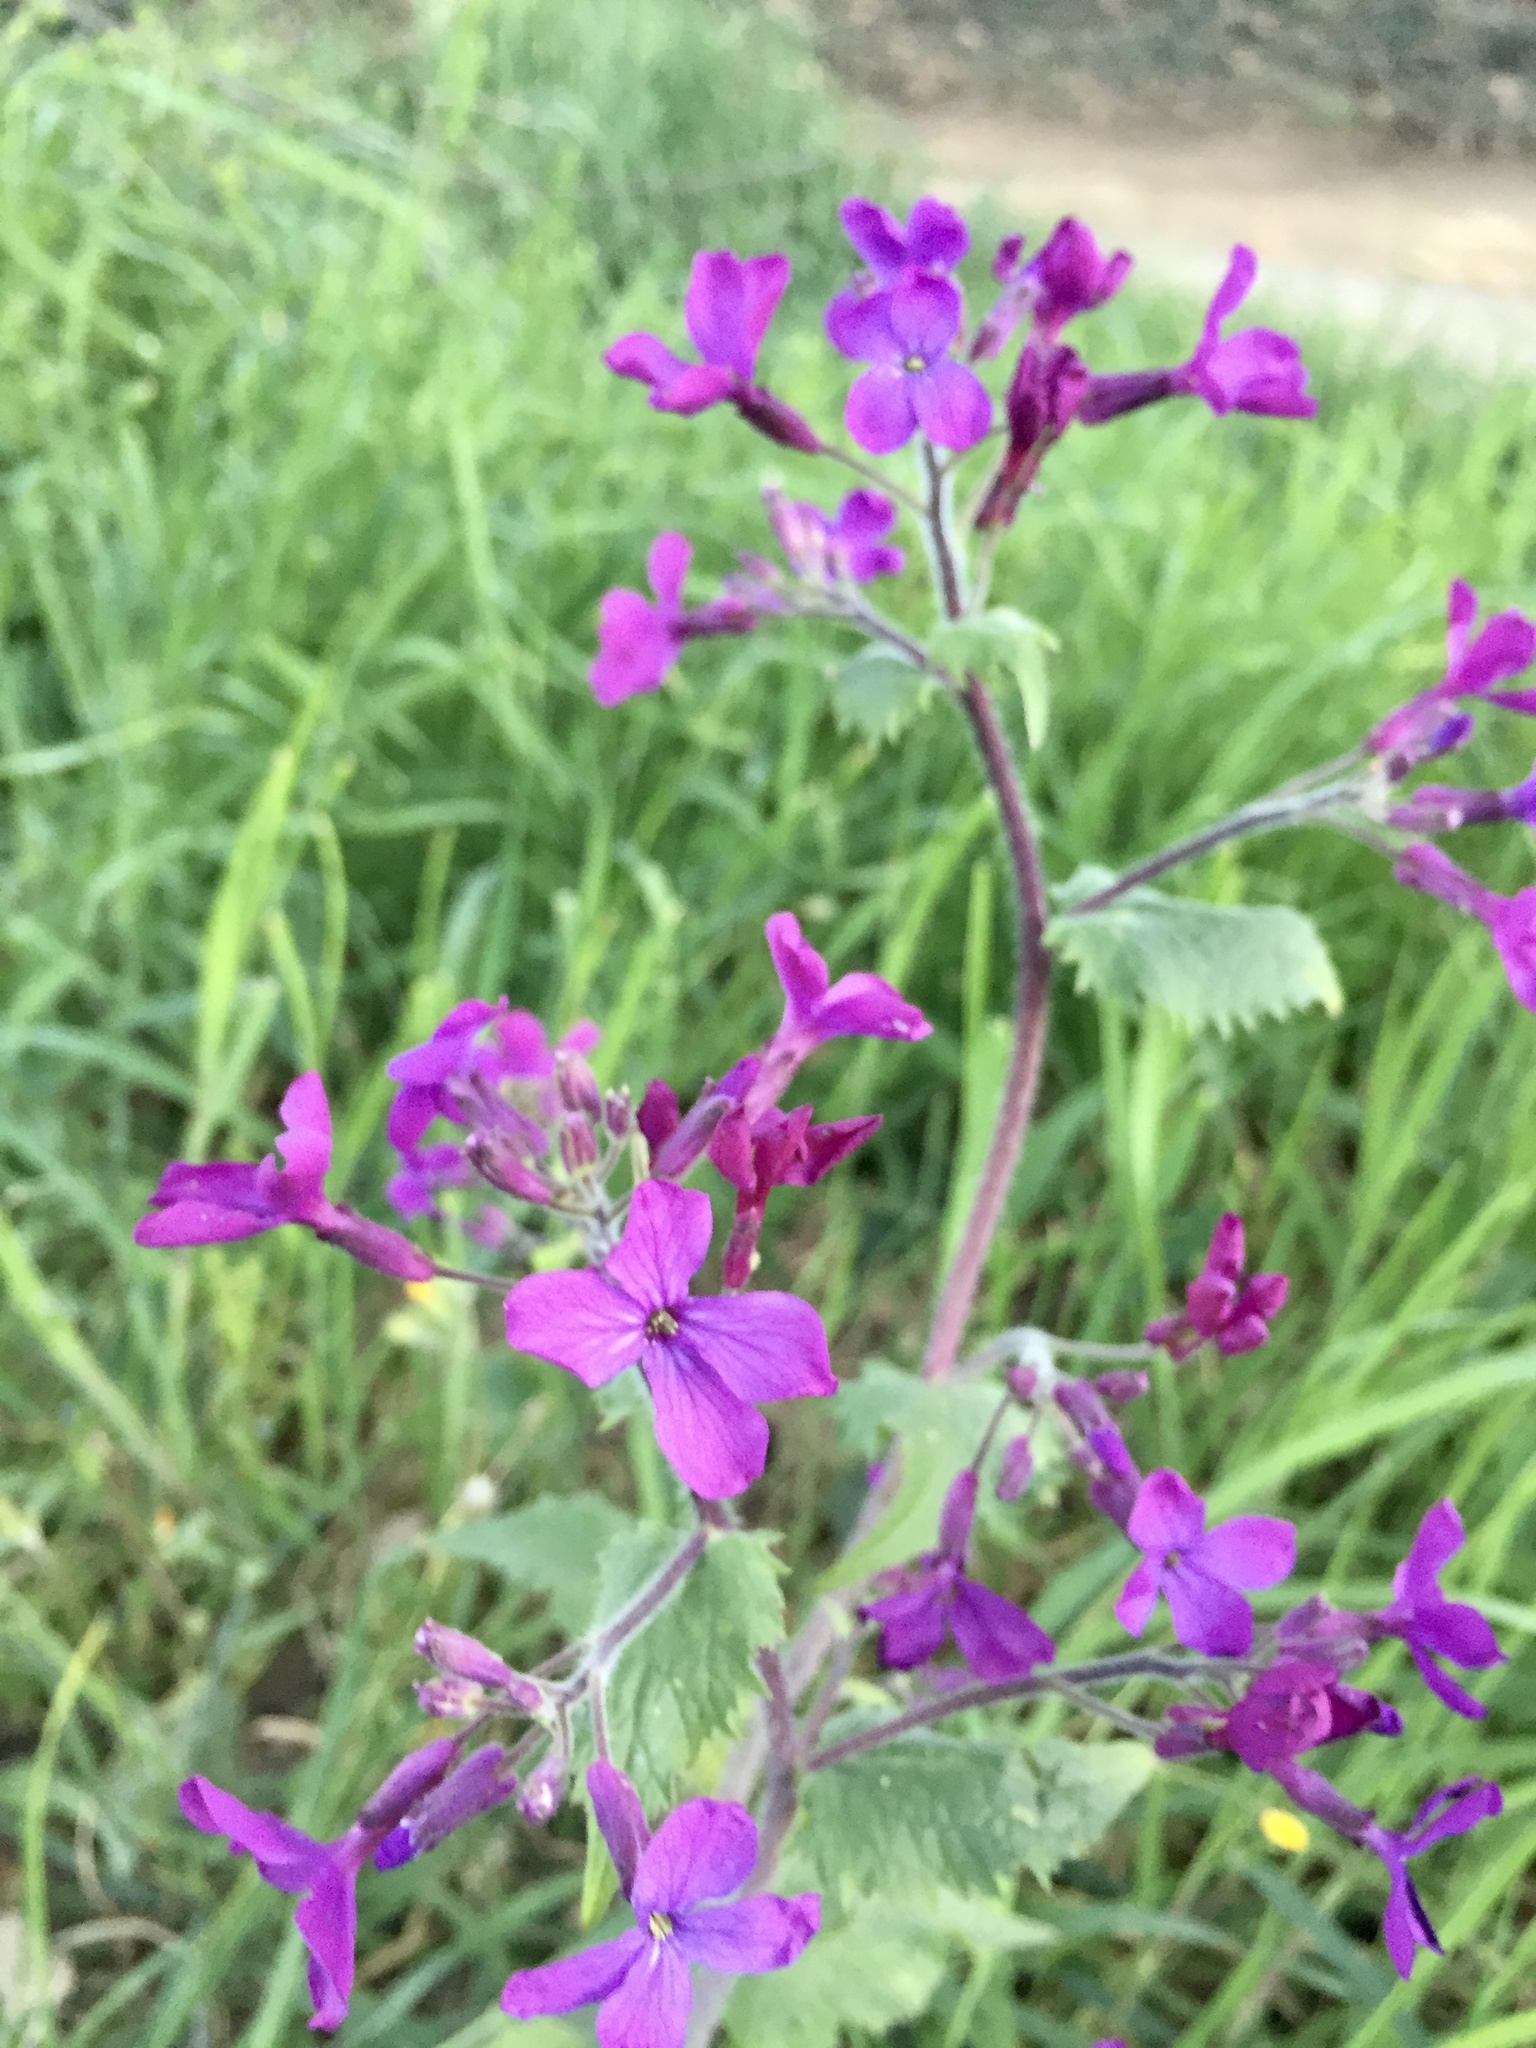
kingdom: Plantae
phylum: Tracheophyta
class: Magnoliopsida
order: Brassicales
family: Brassicaceae
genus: Lunaria
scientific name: Lunaria annua
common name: Honesty
